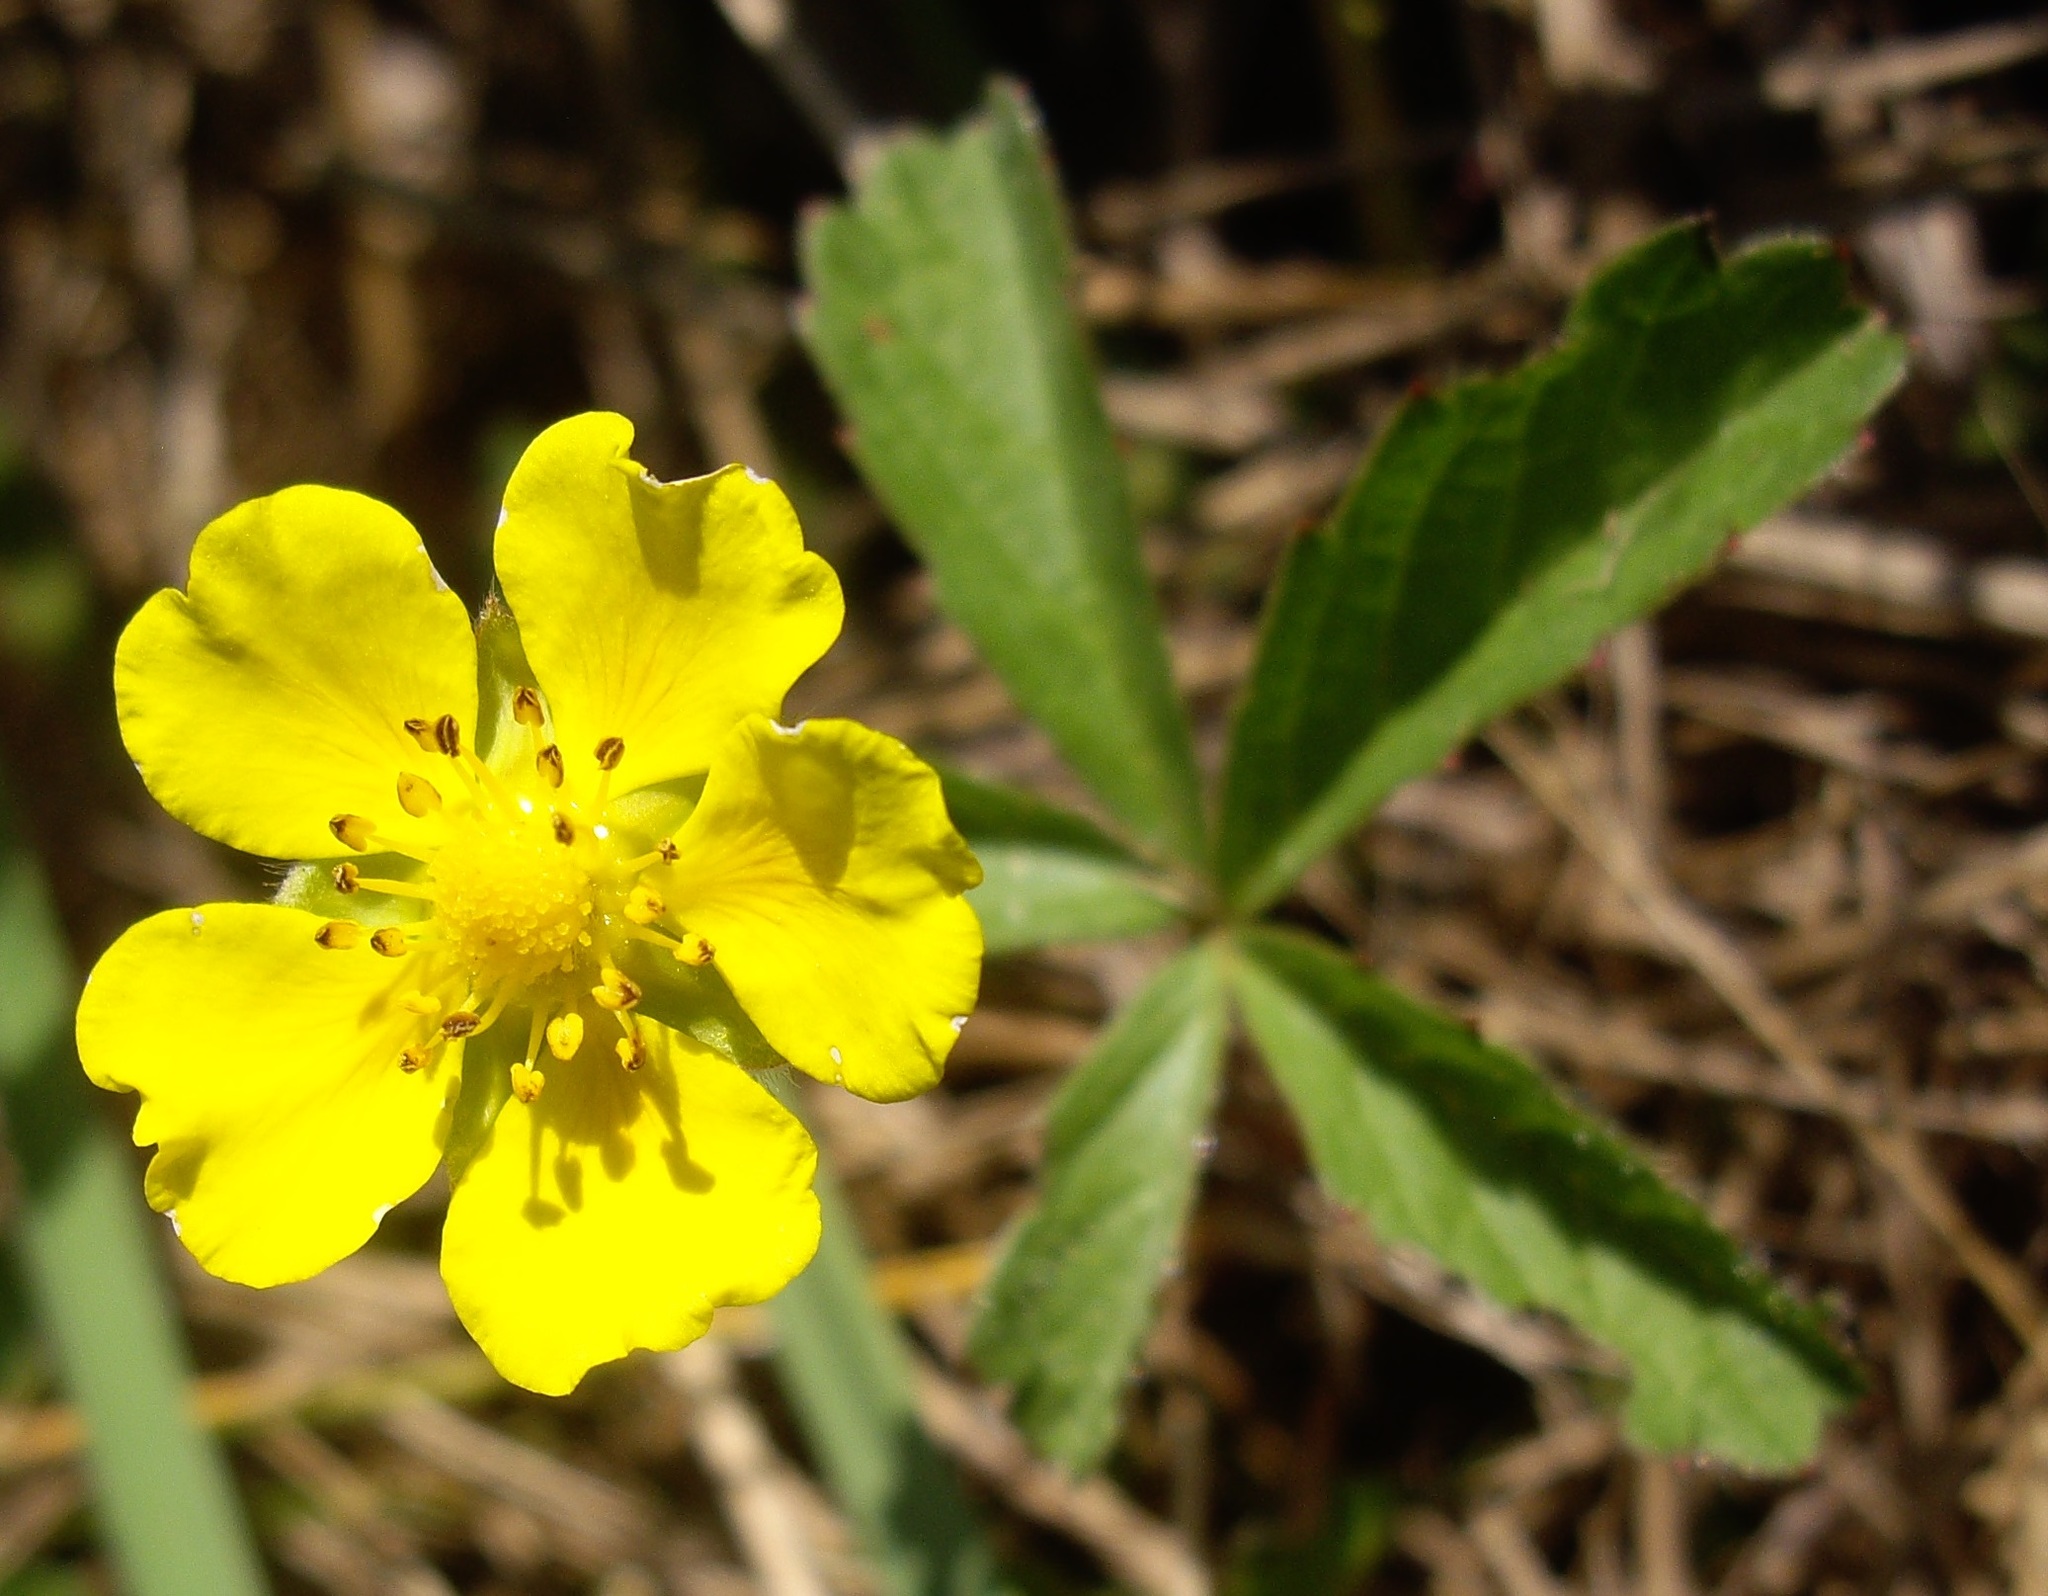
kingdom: Plantae
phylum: Tracheophyta
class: Magnoliopsida
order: Rosales
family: Rosaceae
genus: Potentilla
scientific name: Potentilla reptans
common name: Creeping cinquefoil
